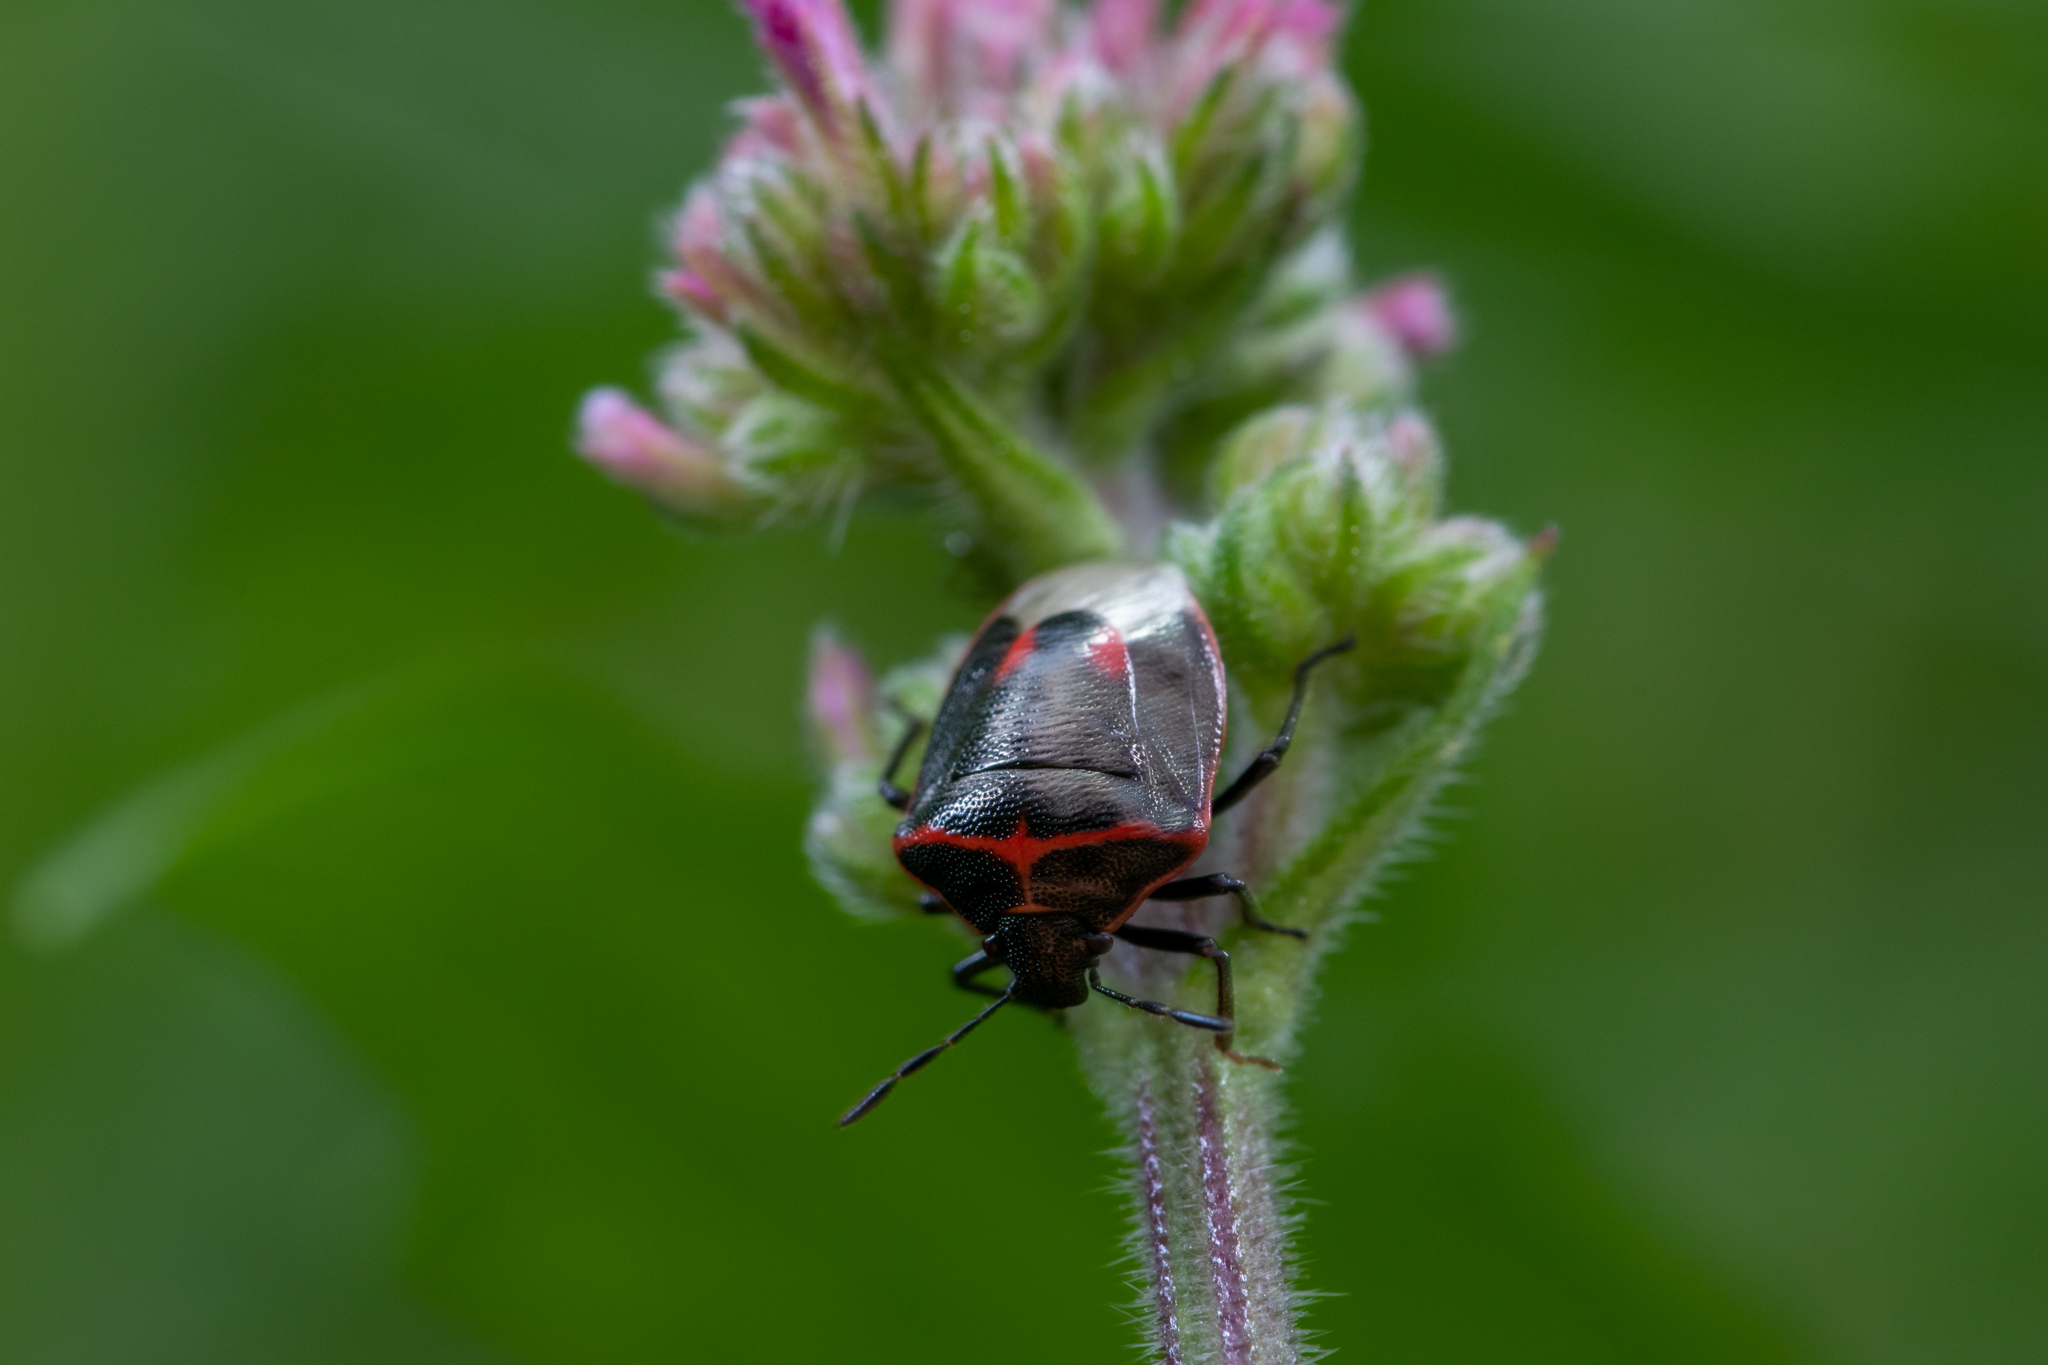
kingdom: Animalia
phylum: Arthropoda
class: Insecta
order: Hemiptera
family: Pentatomidae
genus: Cosmopepla
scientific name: Cosmopepla lintneriana
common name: Twice-stabbed stink bug
